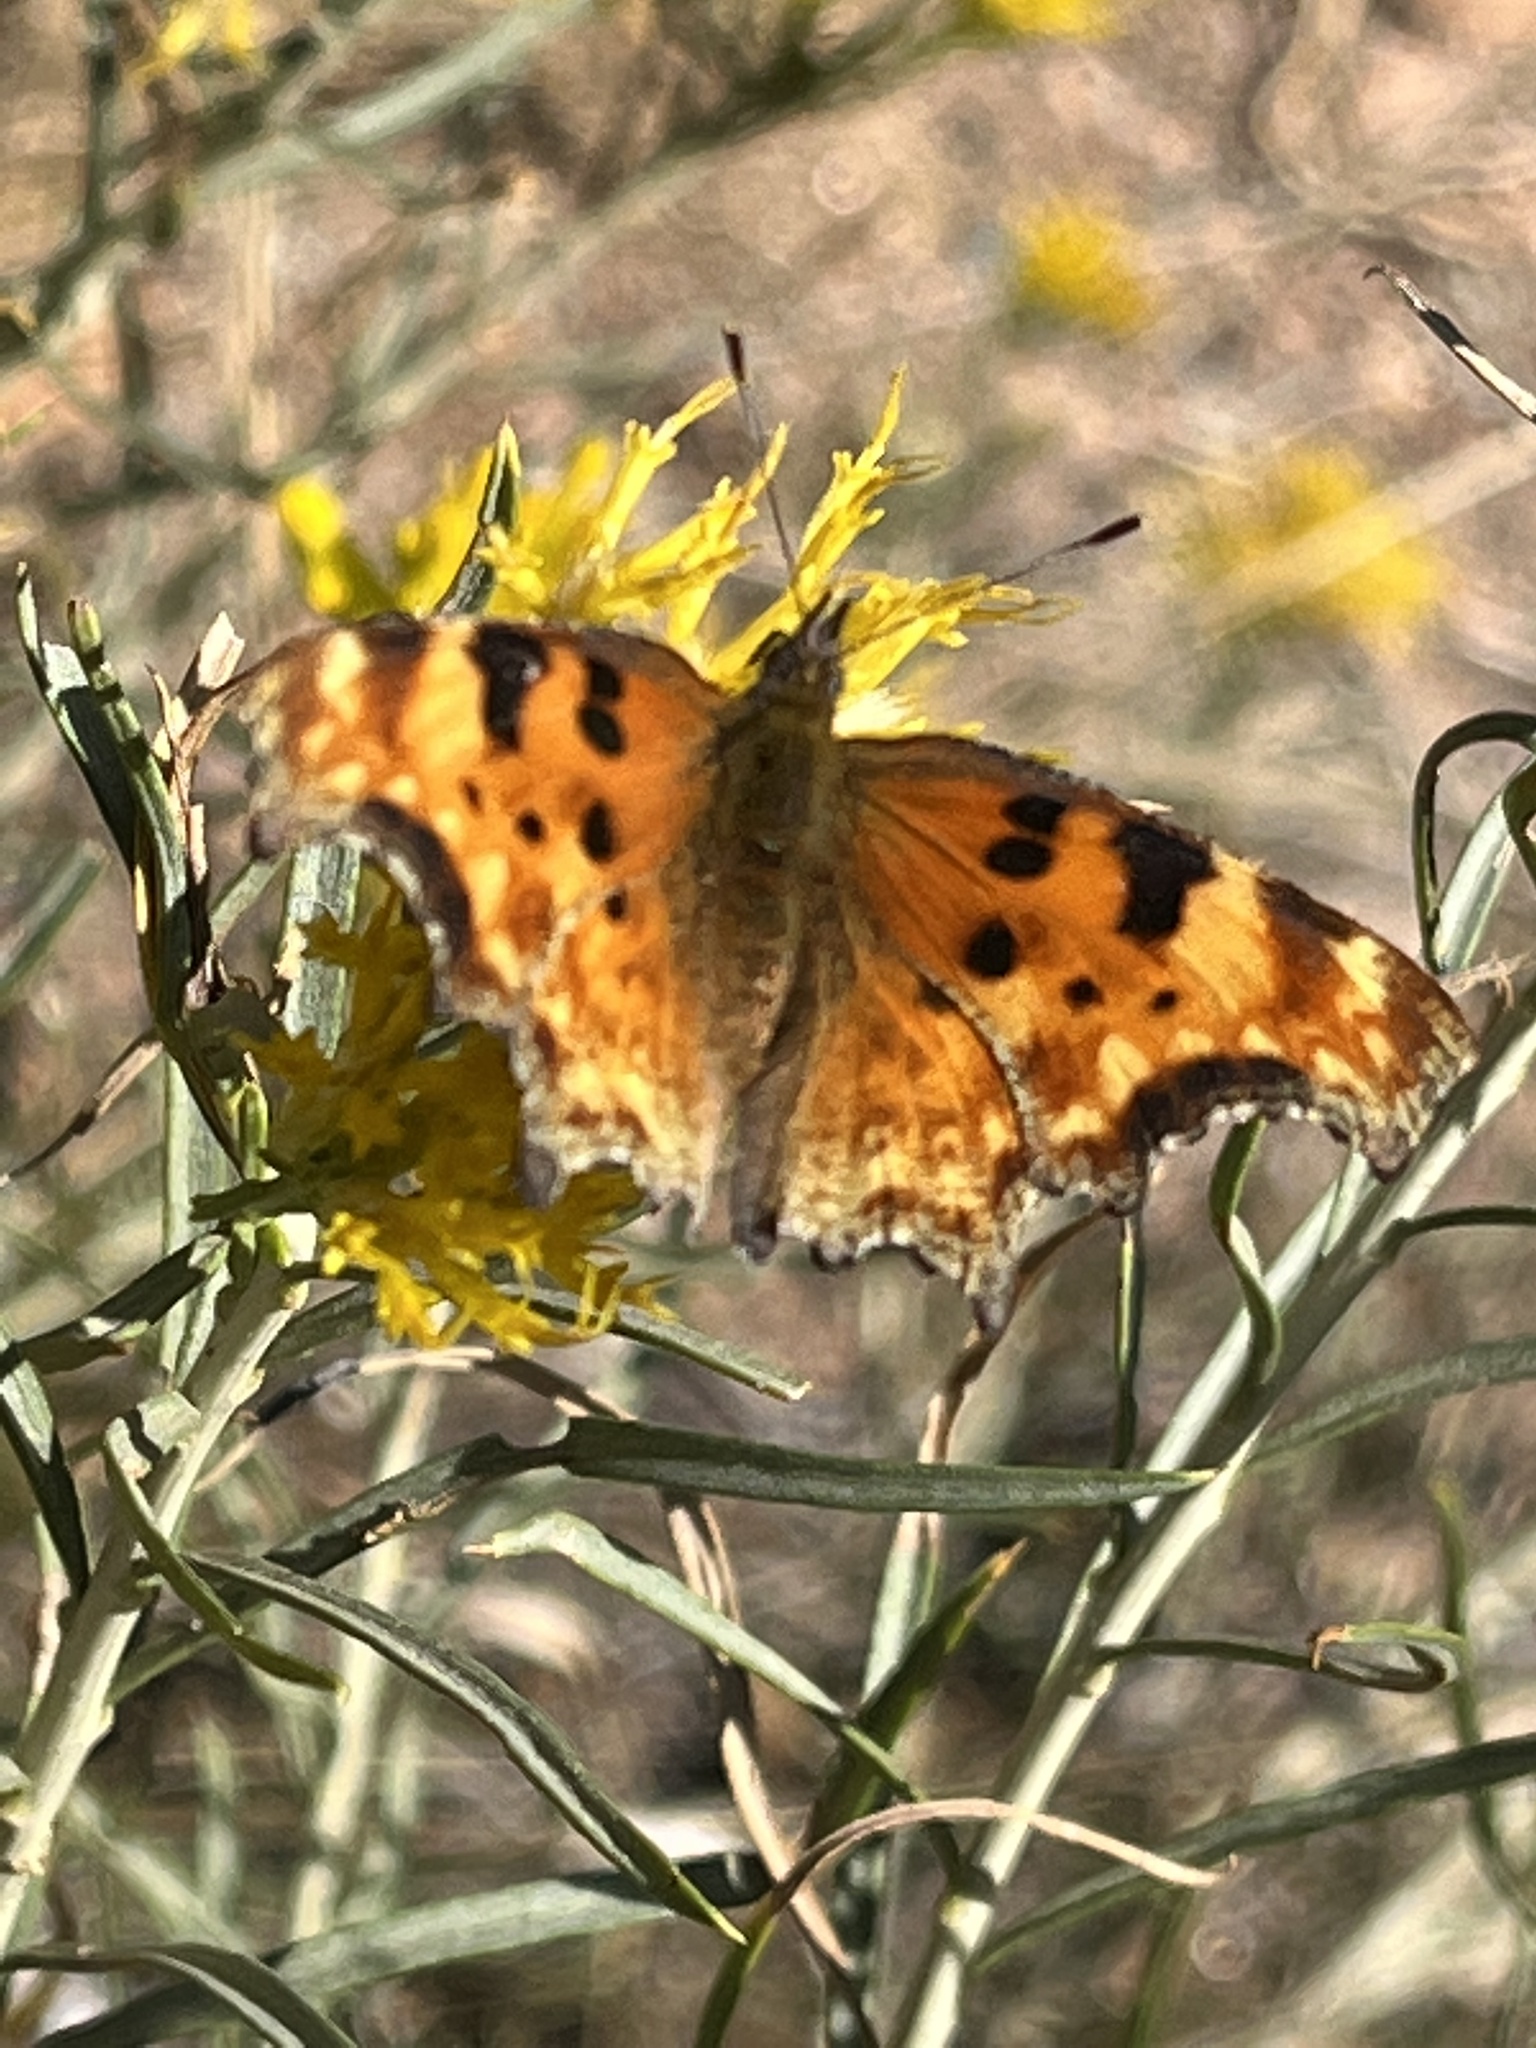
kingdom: Animalia
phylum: Arthropoda
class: Insecta
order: Lepidoptera
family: Nymphalidae
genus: Polygonia
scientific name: Polygonia gracilis
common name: Hoary comma
